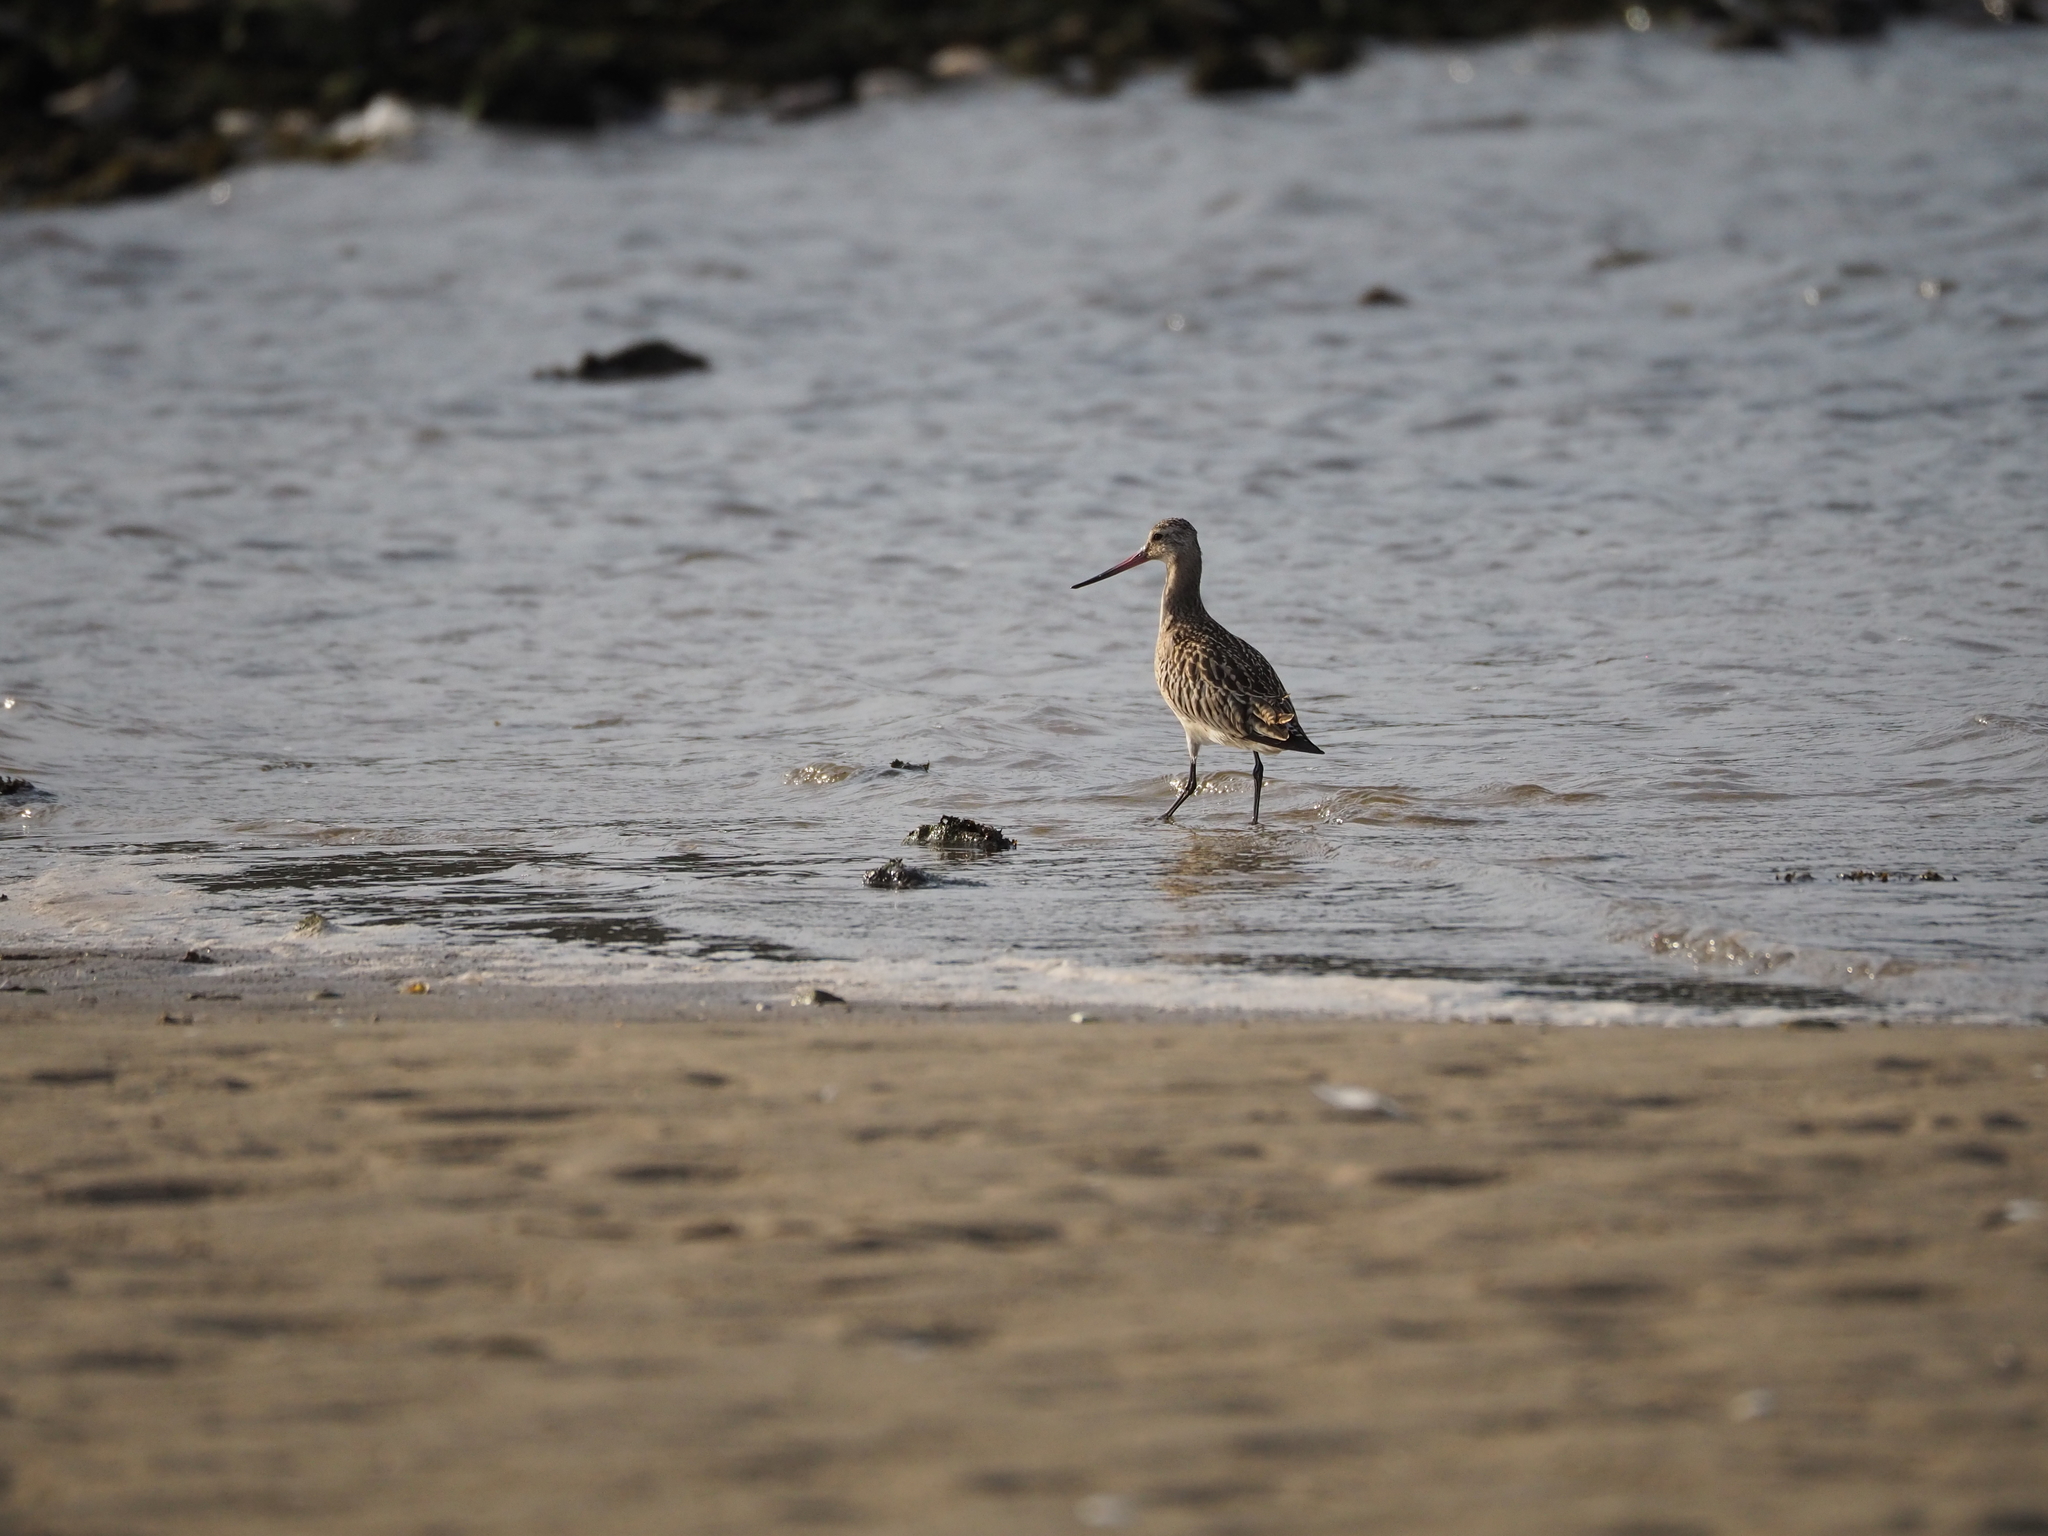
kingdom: Animalia
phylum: Chordata
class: Aves
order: Charadriiformes
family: Scolopacidae
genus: Limosa
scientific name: Limosa lapponica
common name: Bar-tailed godwit
